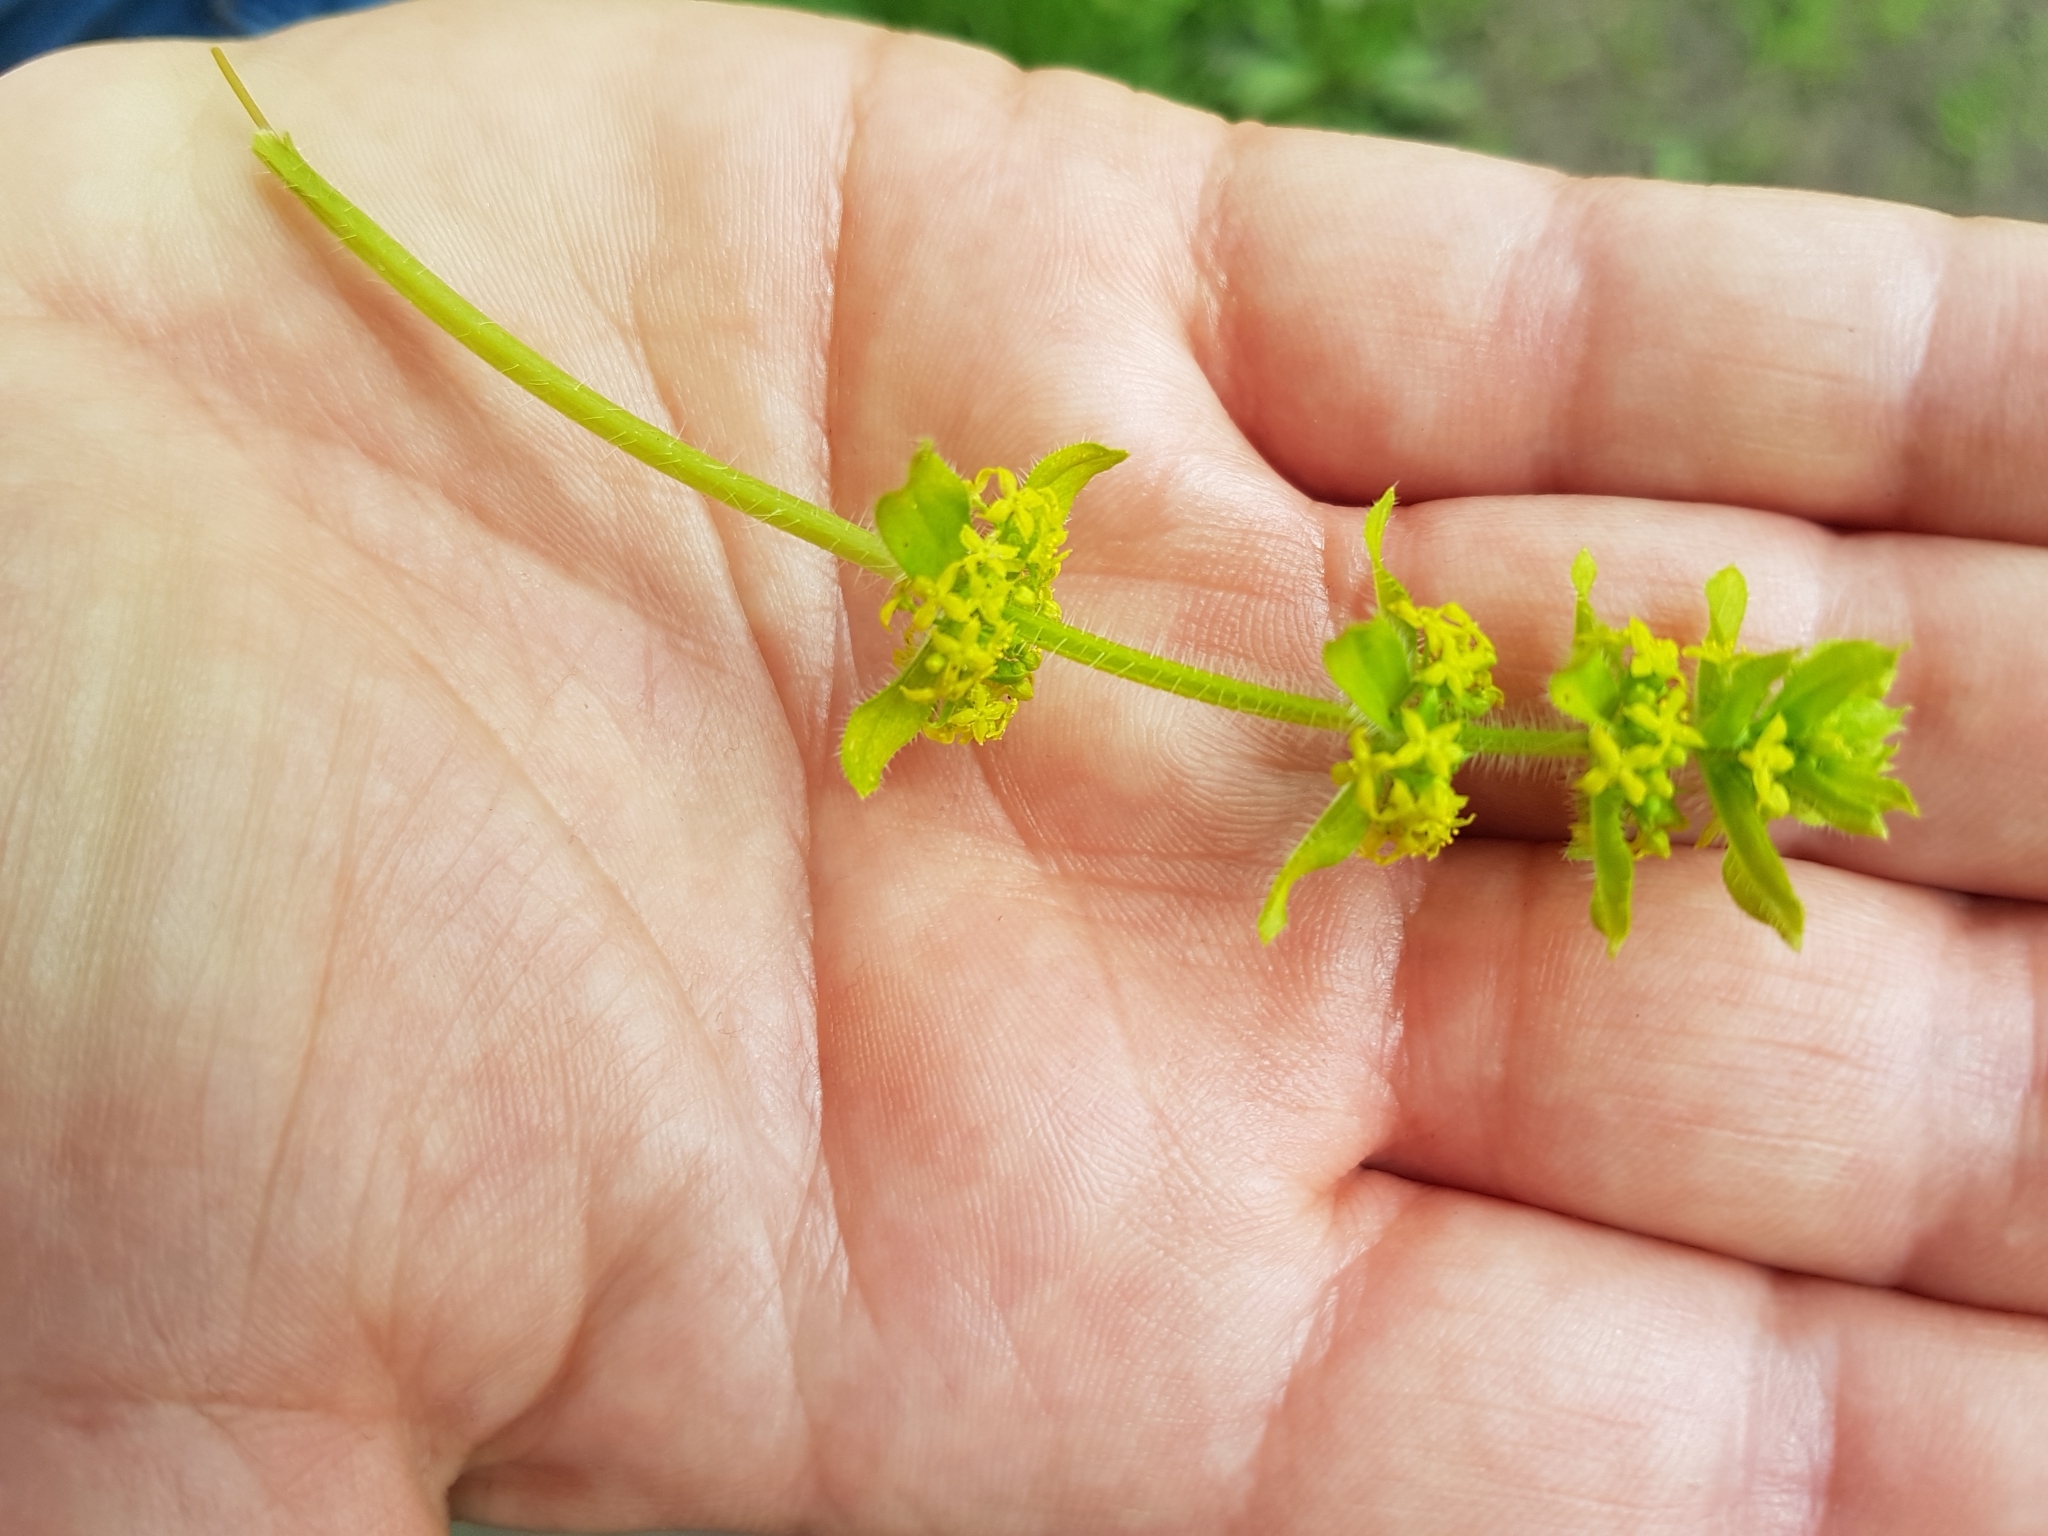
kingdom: Plantae
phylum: Tracheophyta
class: Magnoliopsida
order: Gentianales
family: Rubiaceae
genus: Cruciata
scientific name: Cruciata laevipes
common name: Crosswort
